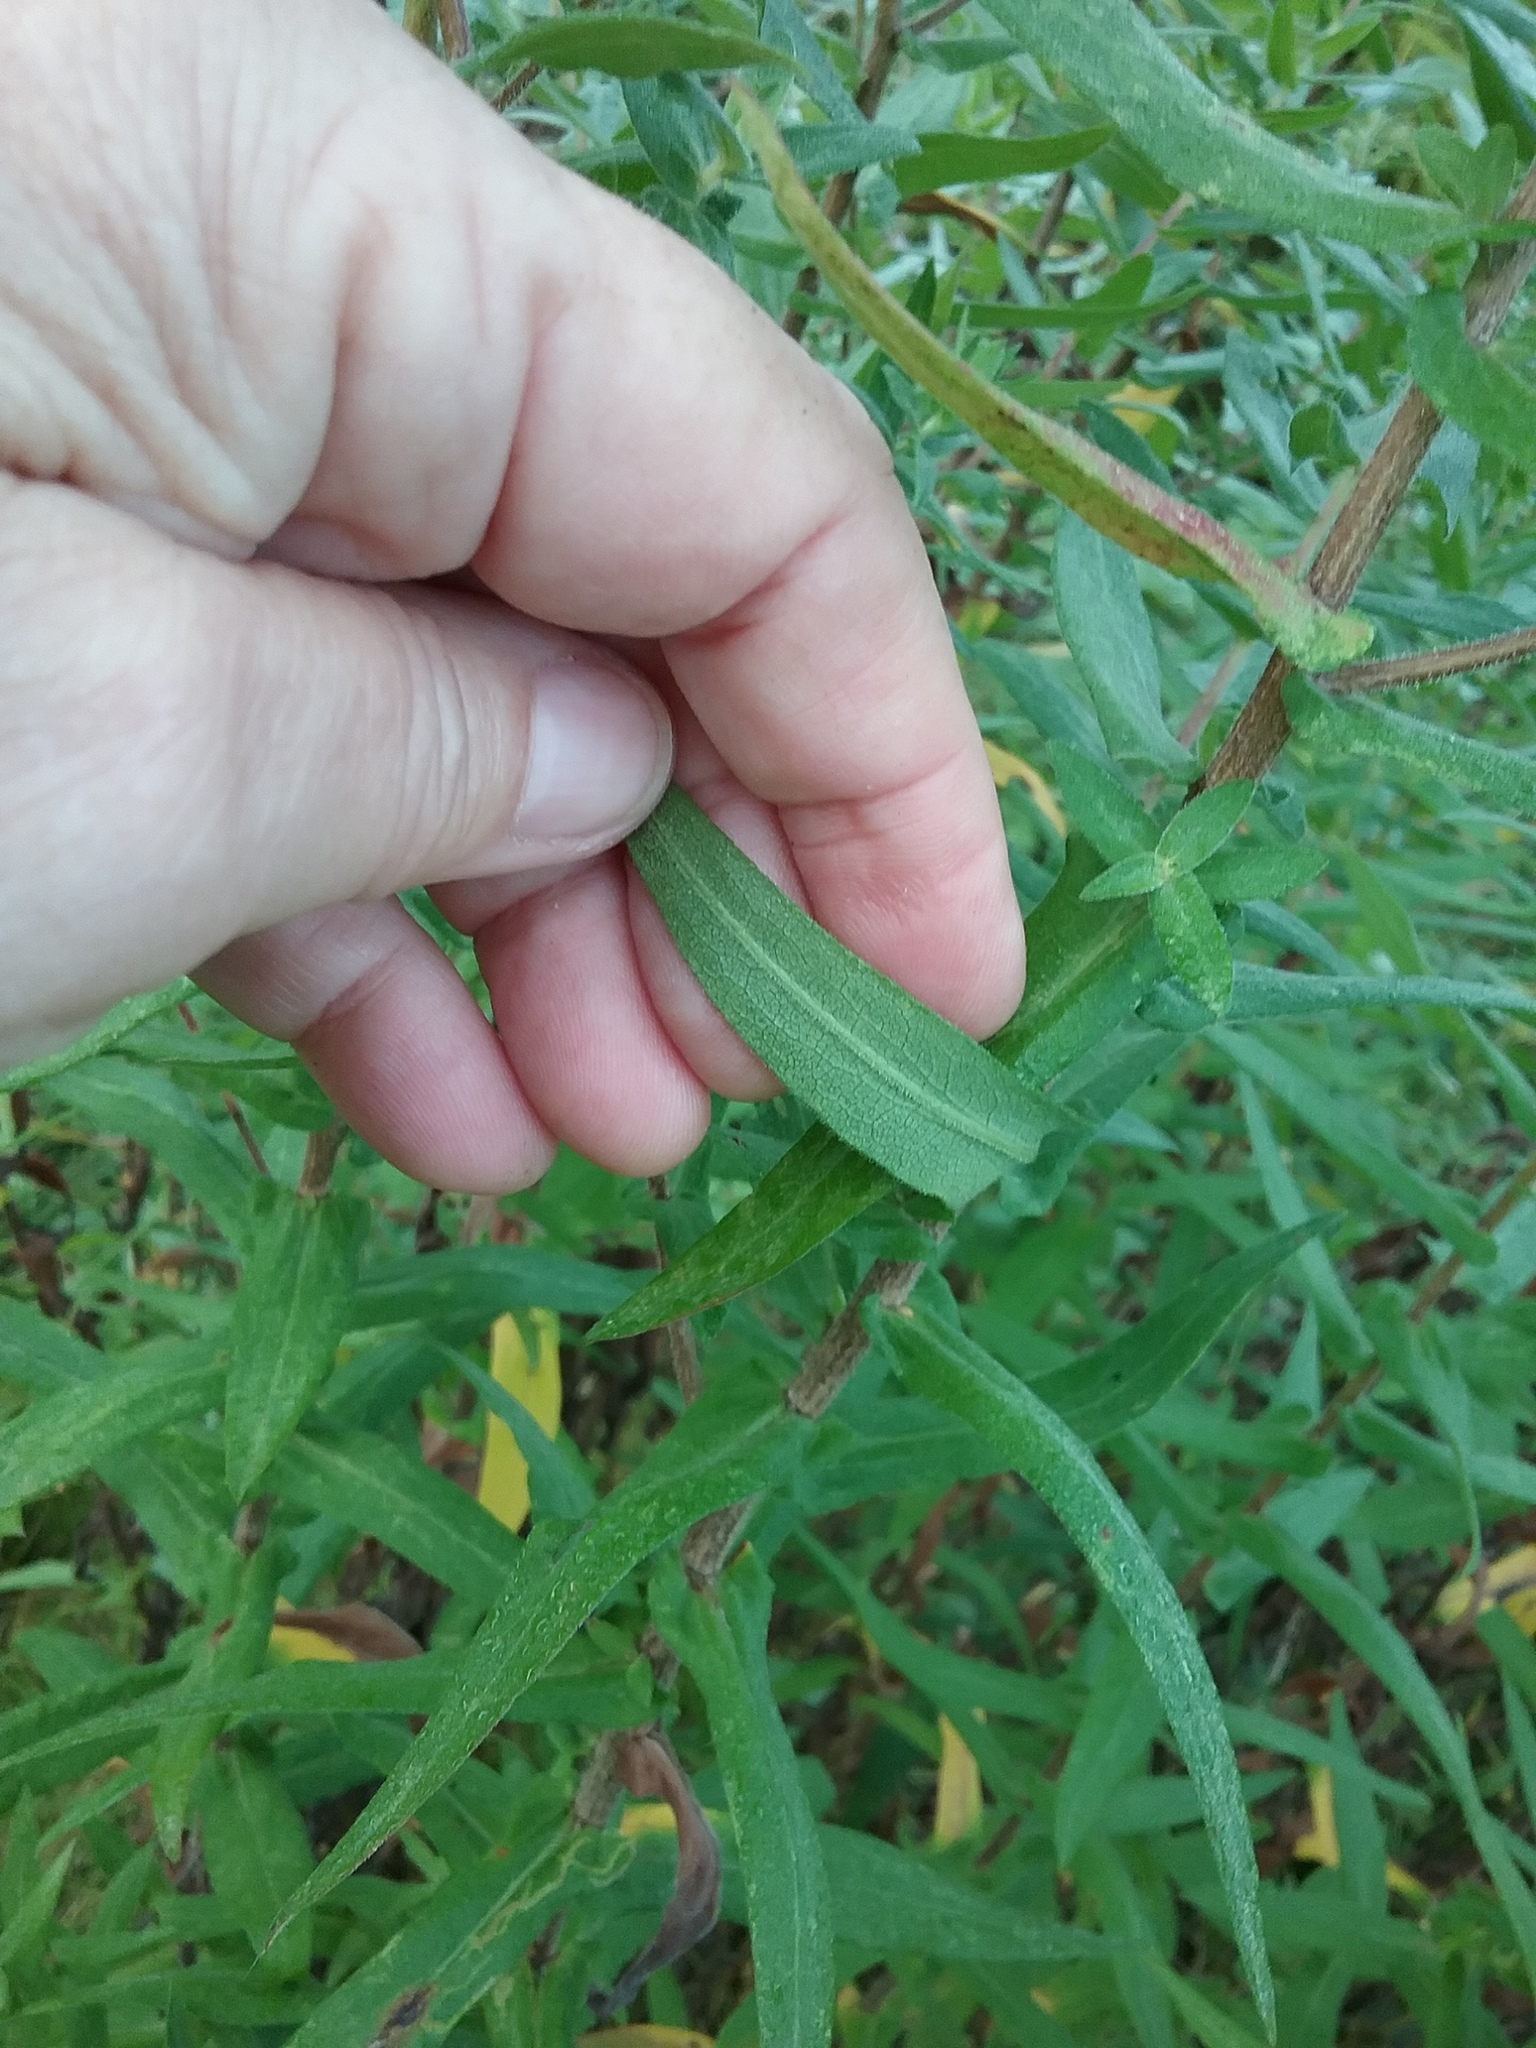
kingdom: Plantae
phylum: Tracheophyta
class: Magnoliopsida
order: Asterales
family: Asteraceae
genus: Symphyotrichum
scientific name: Symphyotrichum novae-angliae
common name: Michaelmas daisy
